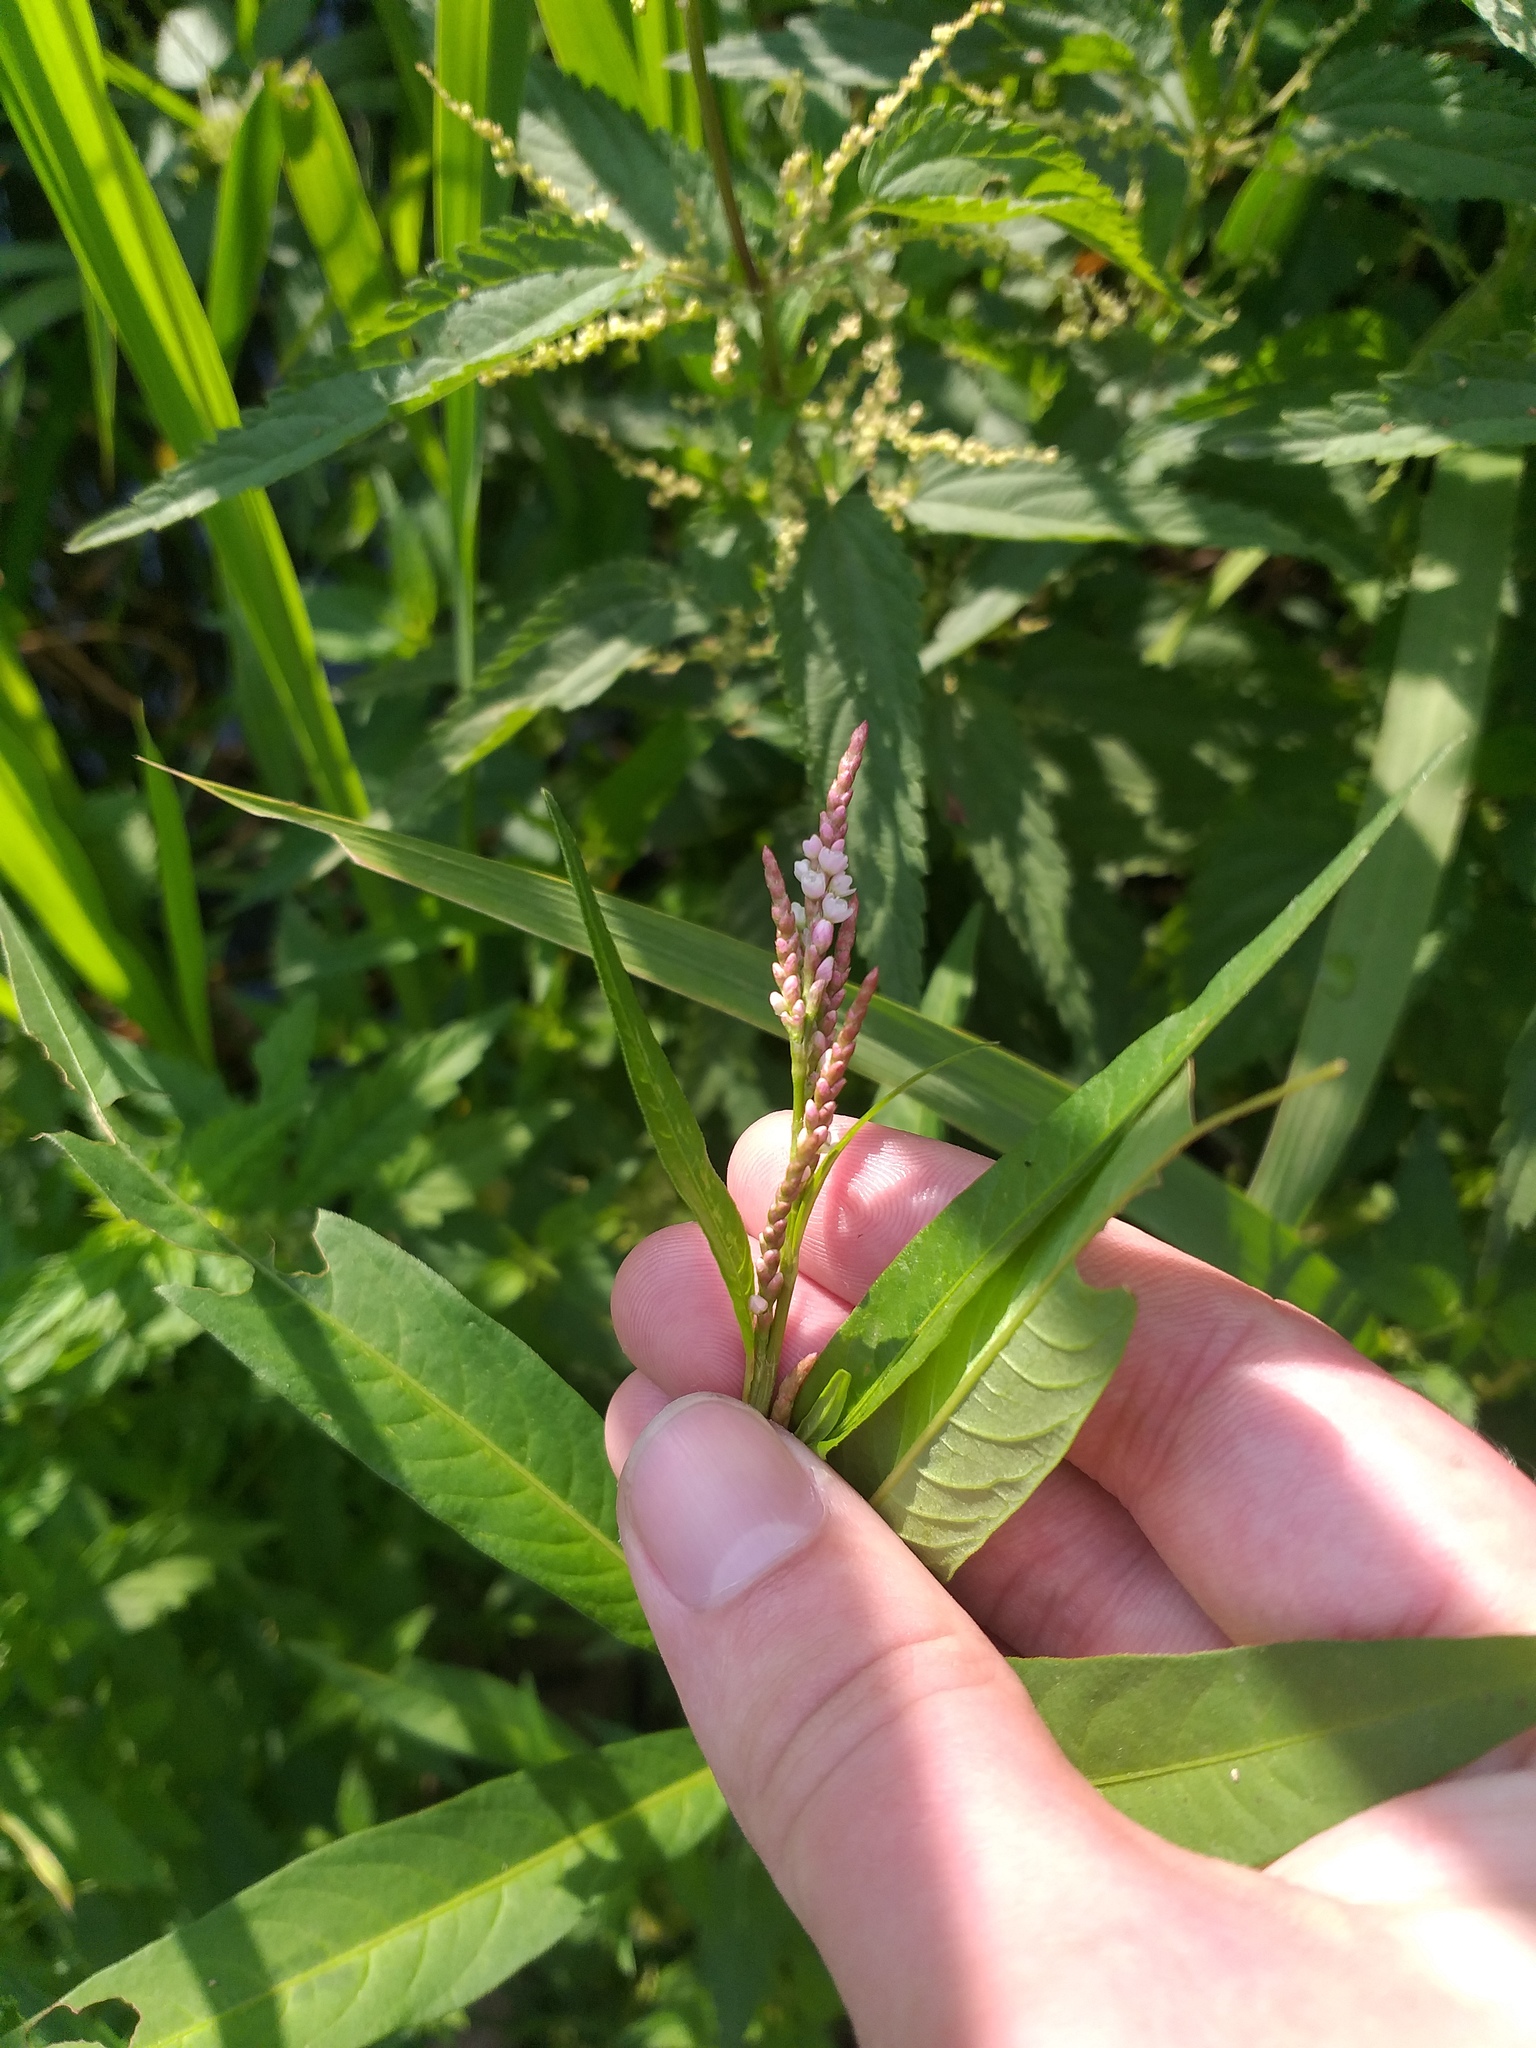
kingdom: Plantae
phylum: Tracheophyta
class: Magnoliopsida
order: Caryophyllales
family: Polygonaceae
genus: Persicaria
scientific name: Persicaria maculosa
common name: Redshank
